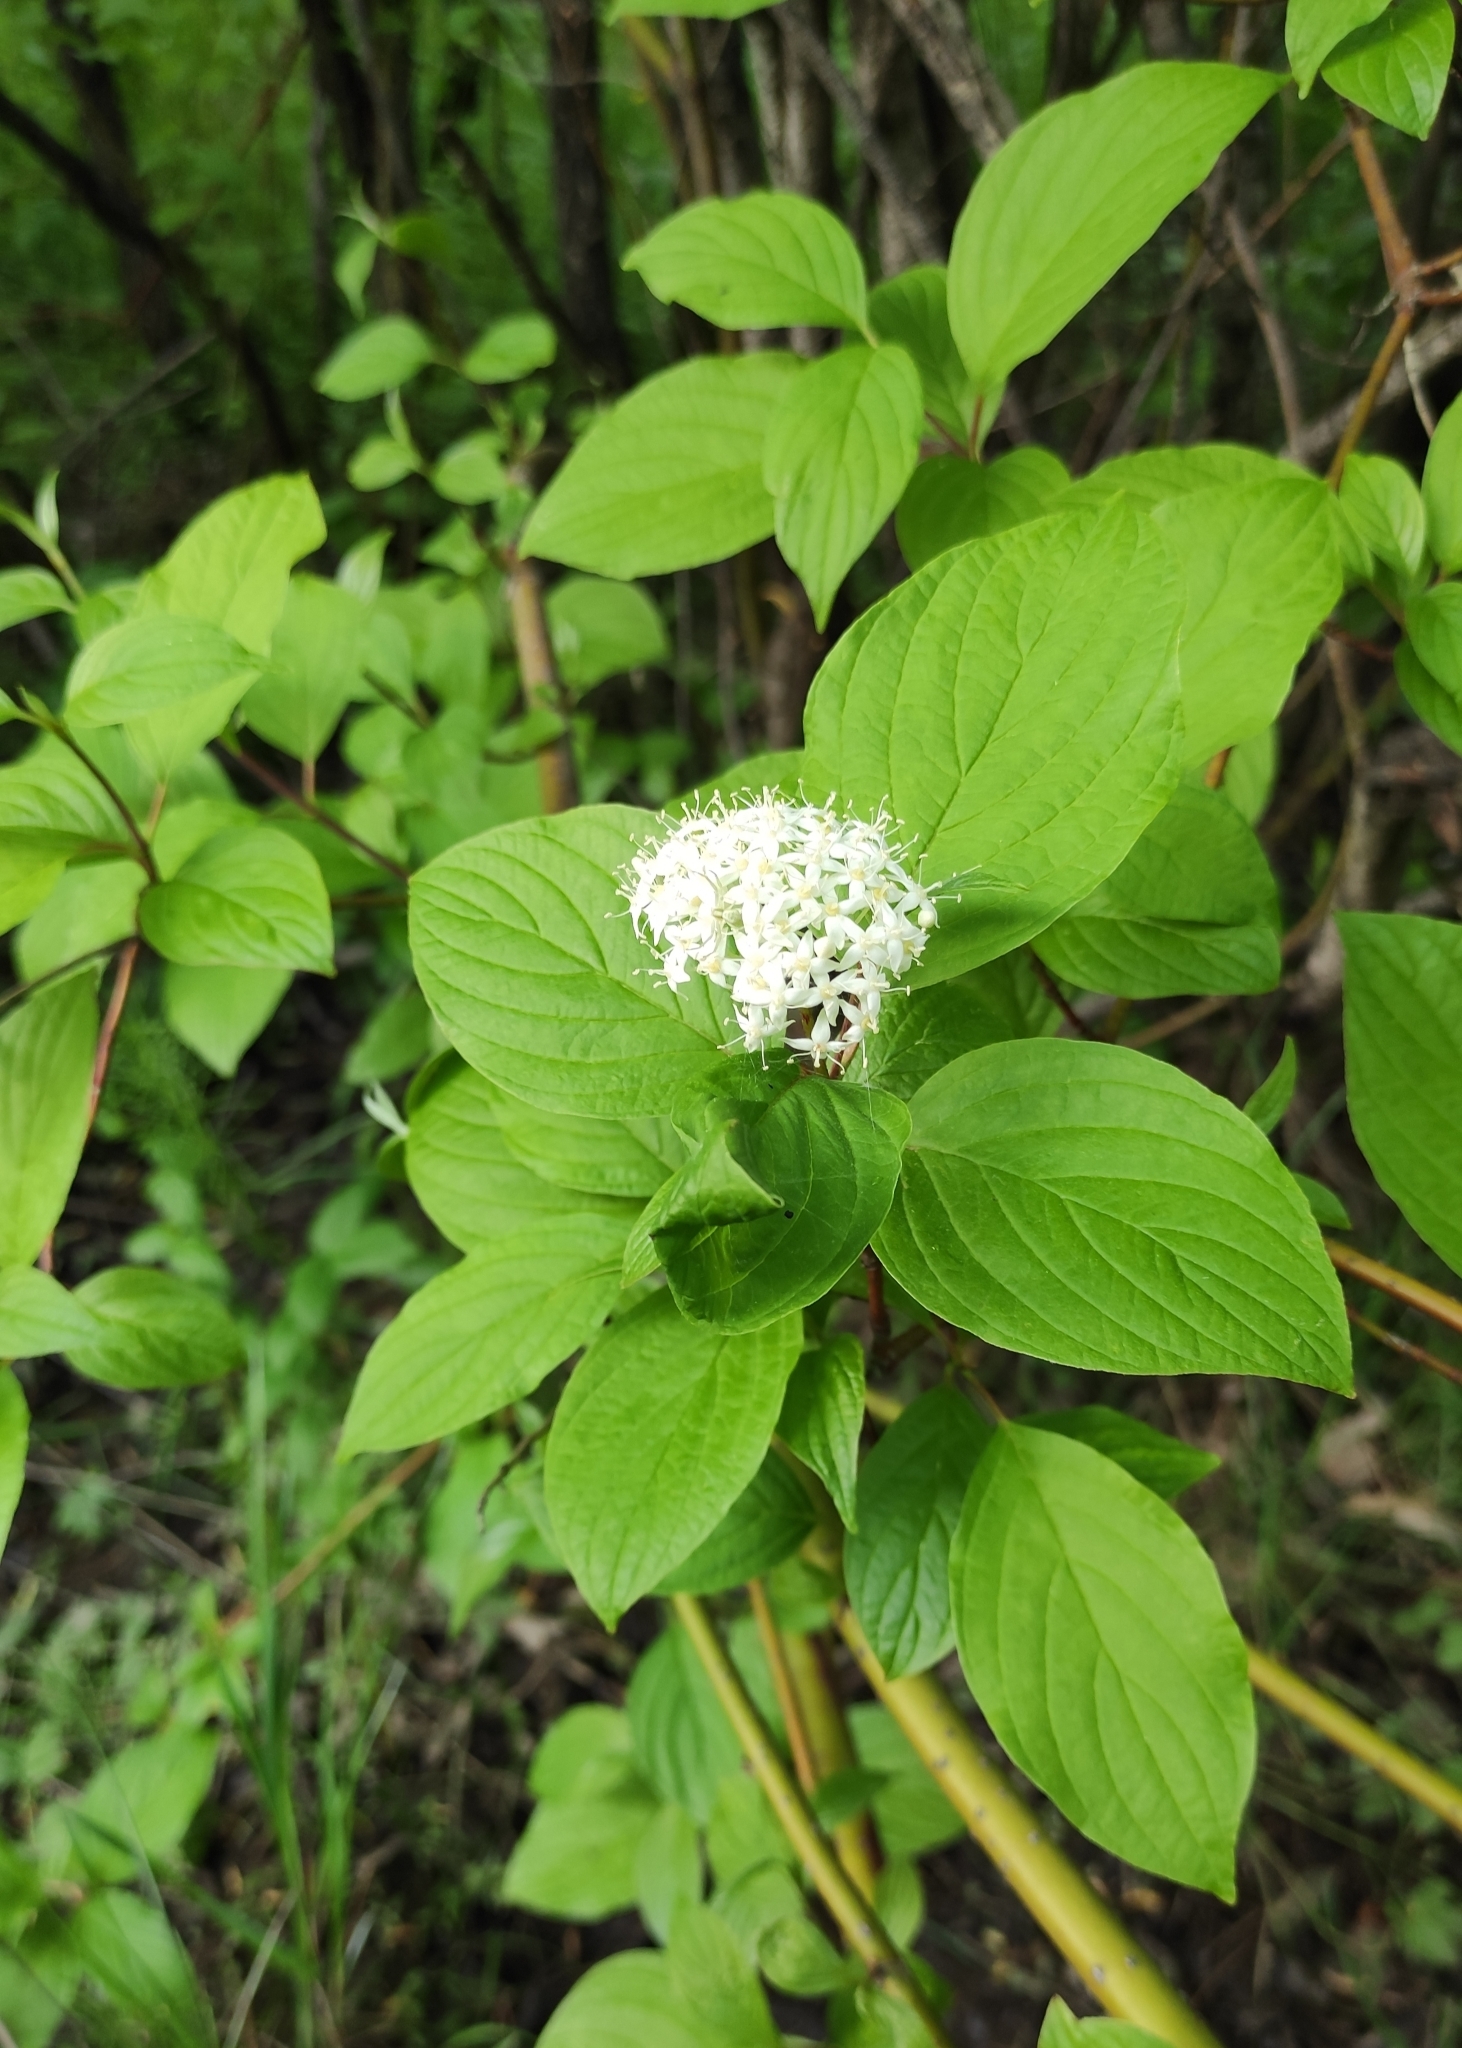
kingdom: Plantae
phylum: Tracheophyta
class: Magnoliopsida
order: Cornales
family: Cornaceae
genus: Cornus
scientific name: Cornus alba
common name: White dogwood
